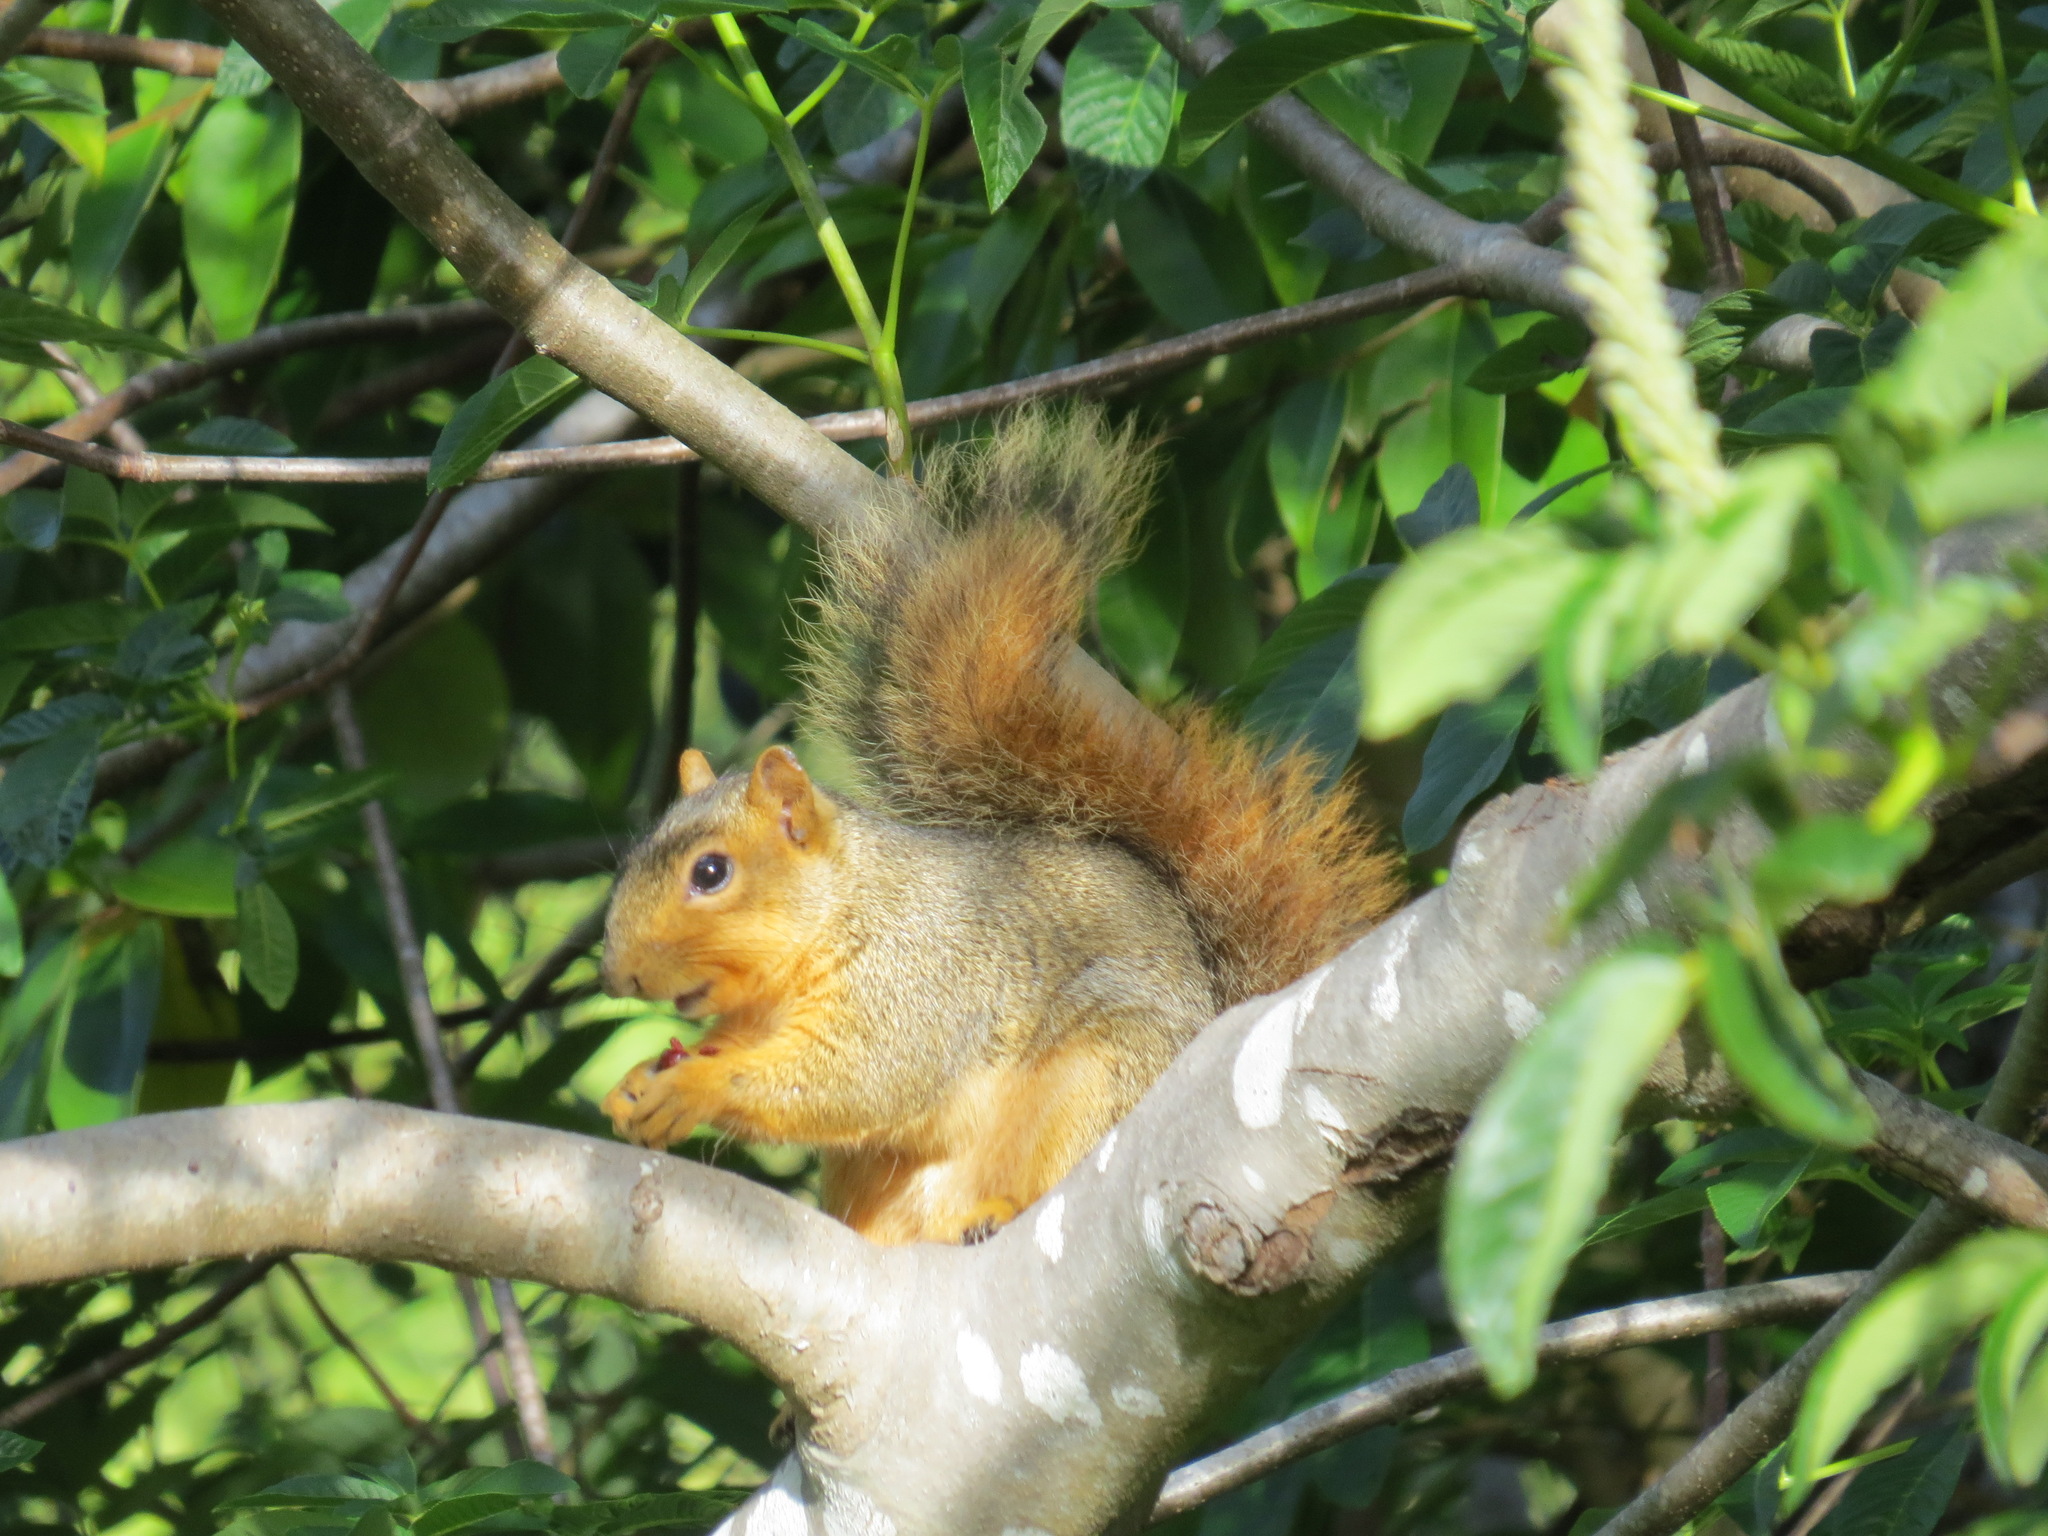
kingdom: Animalia
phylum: Chordata
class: Mammalia
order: Rodentia
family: Sciuridae
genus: Sciurus
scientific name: Sciurus niger
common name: Fox squirrel
